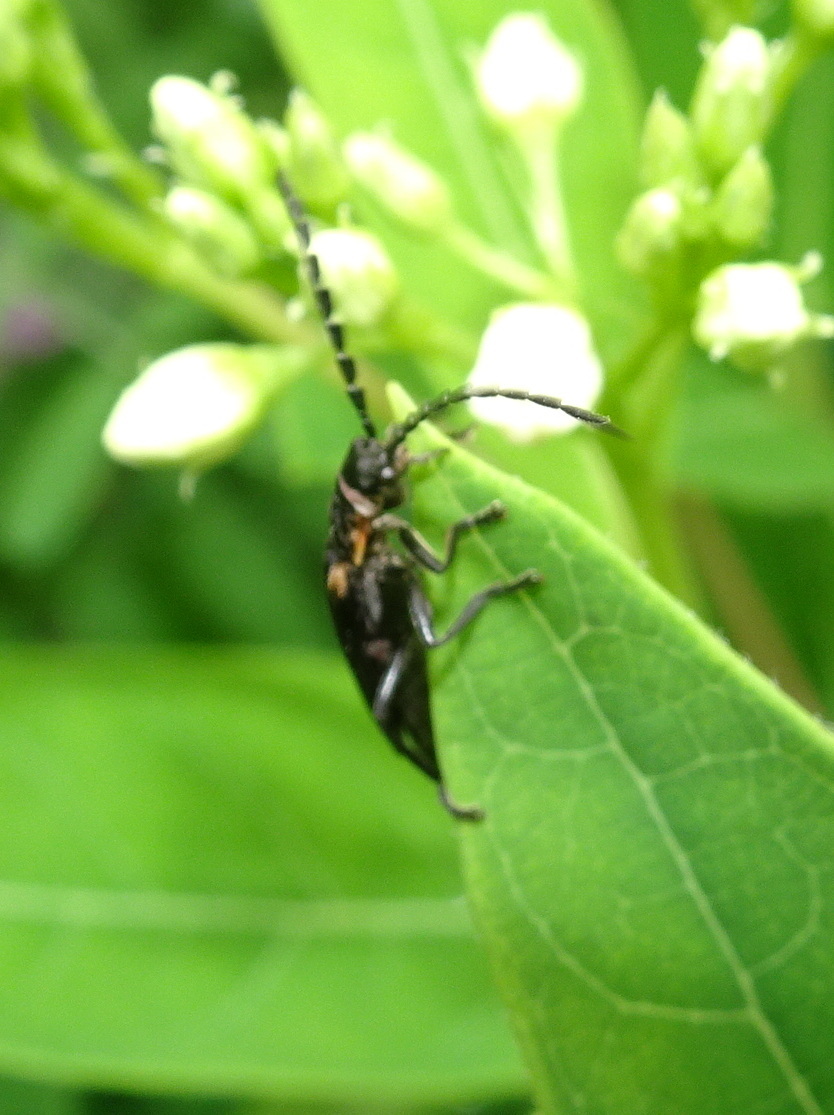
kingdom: Animalia
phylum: Arthropoda
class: Insecta
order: Coleoptera
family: Cantharidae
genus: Polemius
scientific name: Polemius laticornis
